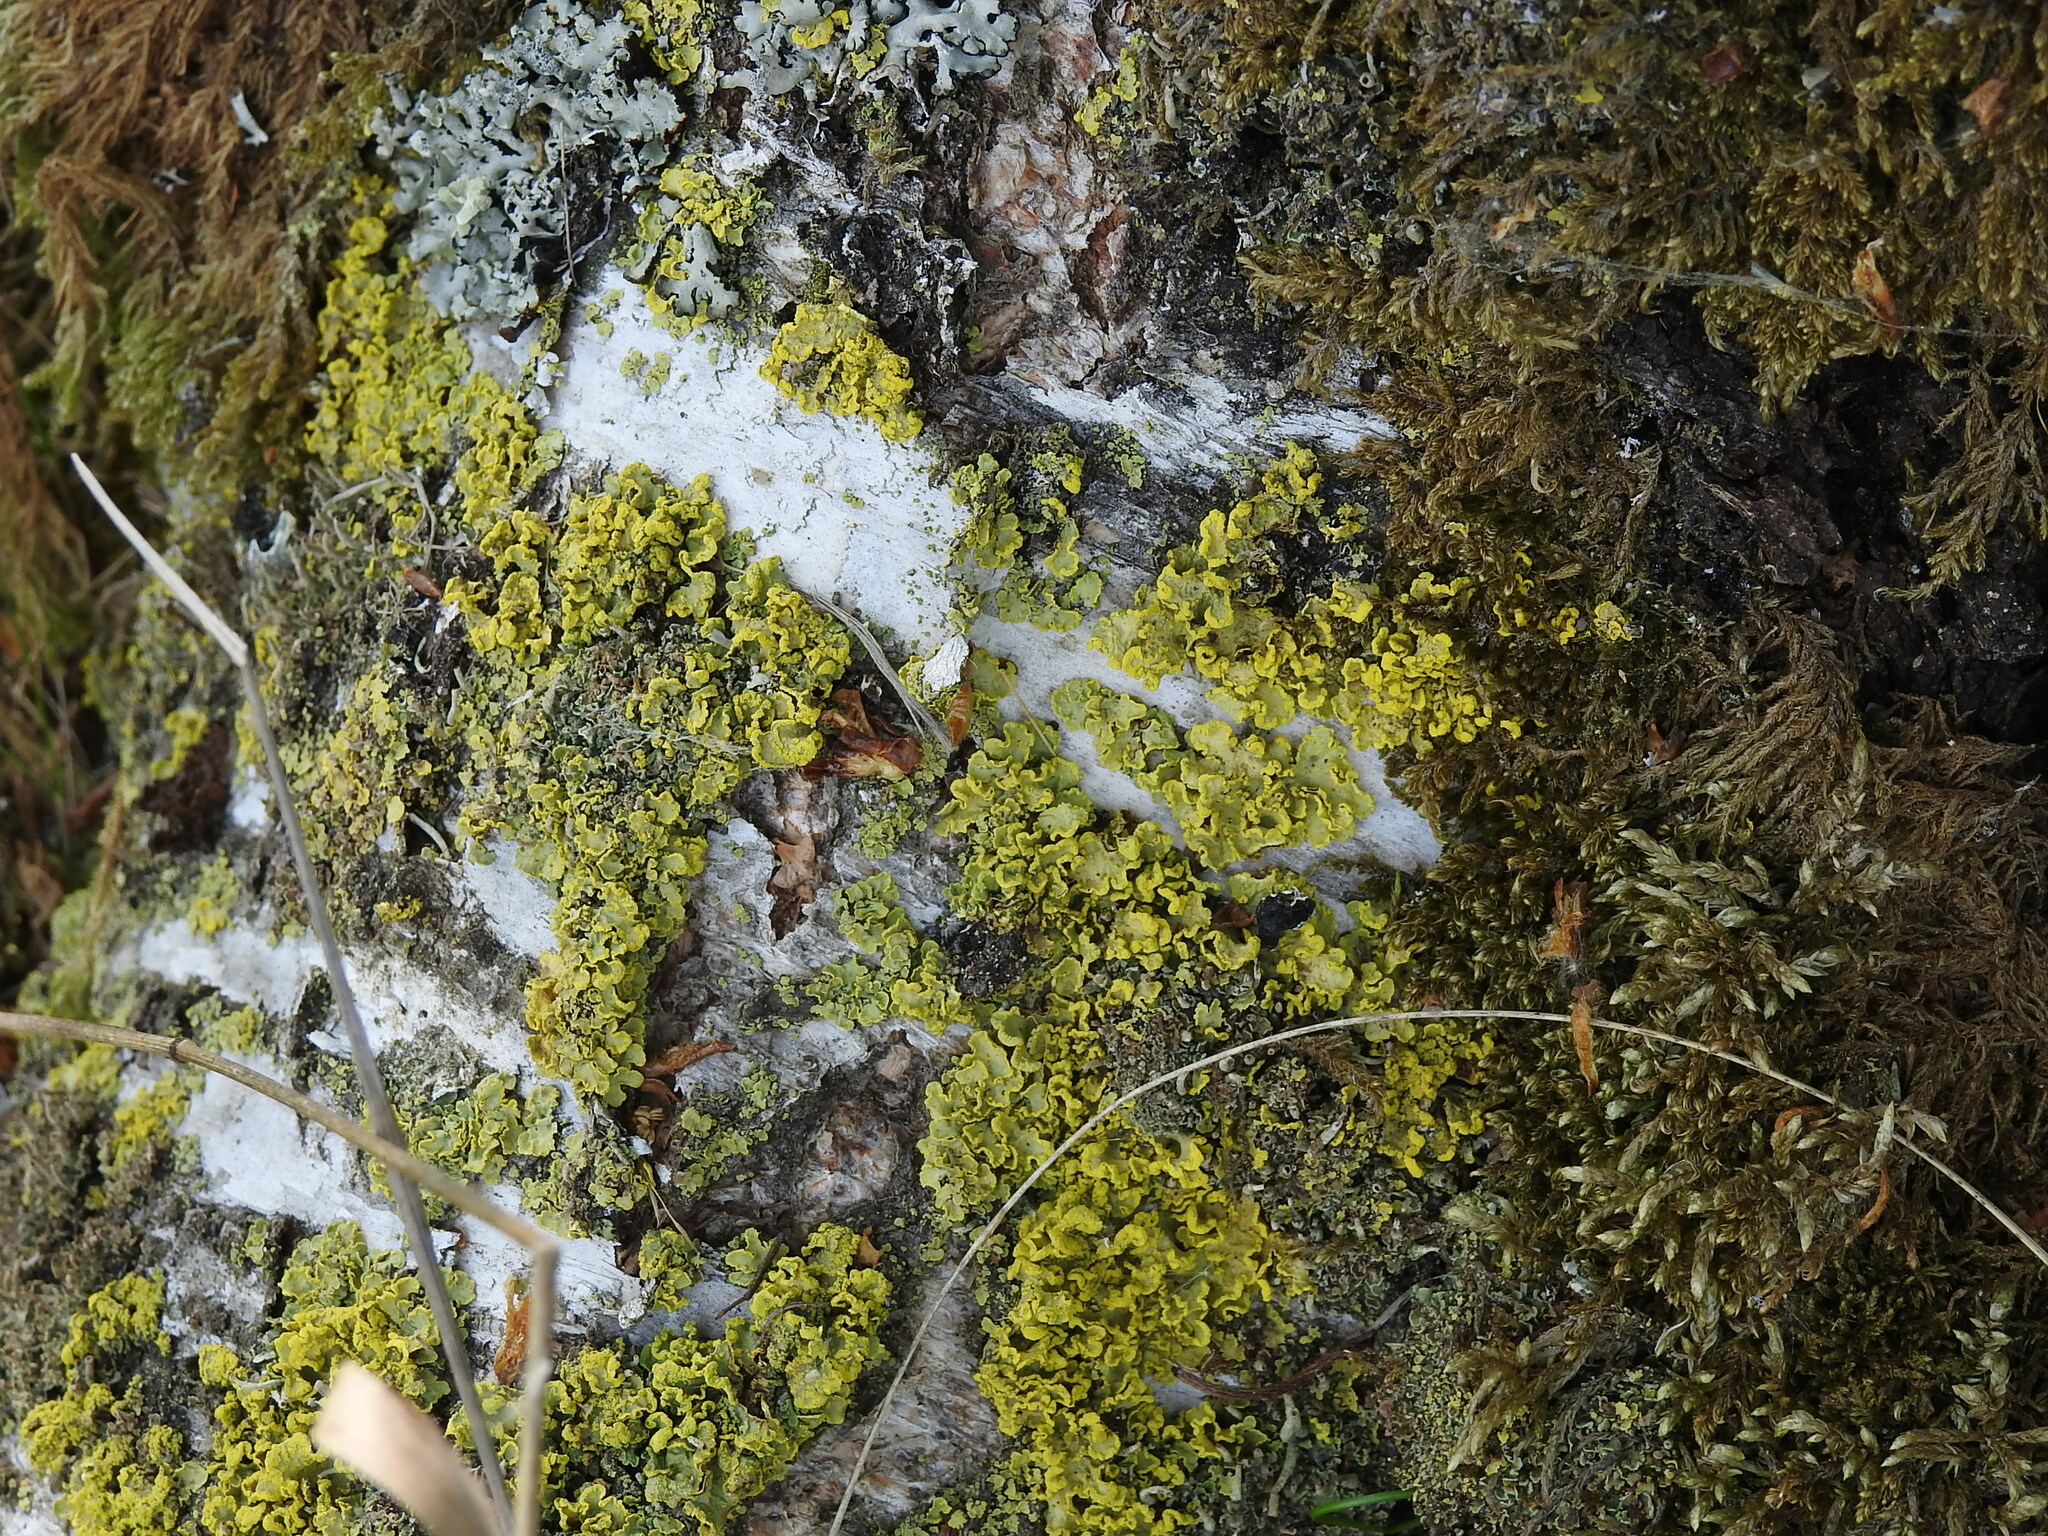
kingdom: Fungi
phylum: Ascomycota
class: Lecanoromycetes
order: Lecanorales
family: Parmeliaceae
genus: Vulpicida
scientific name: Vulpicida pinastri
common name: Powdered sunshine lichen
